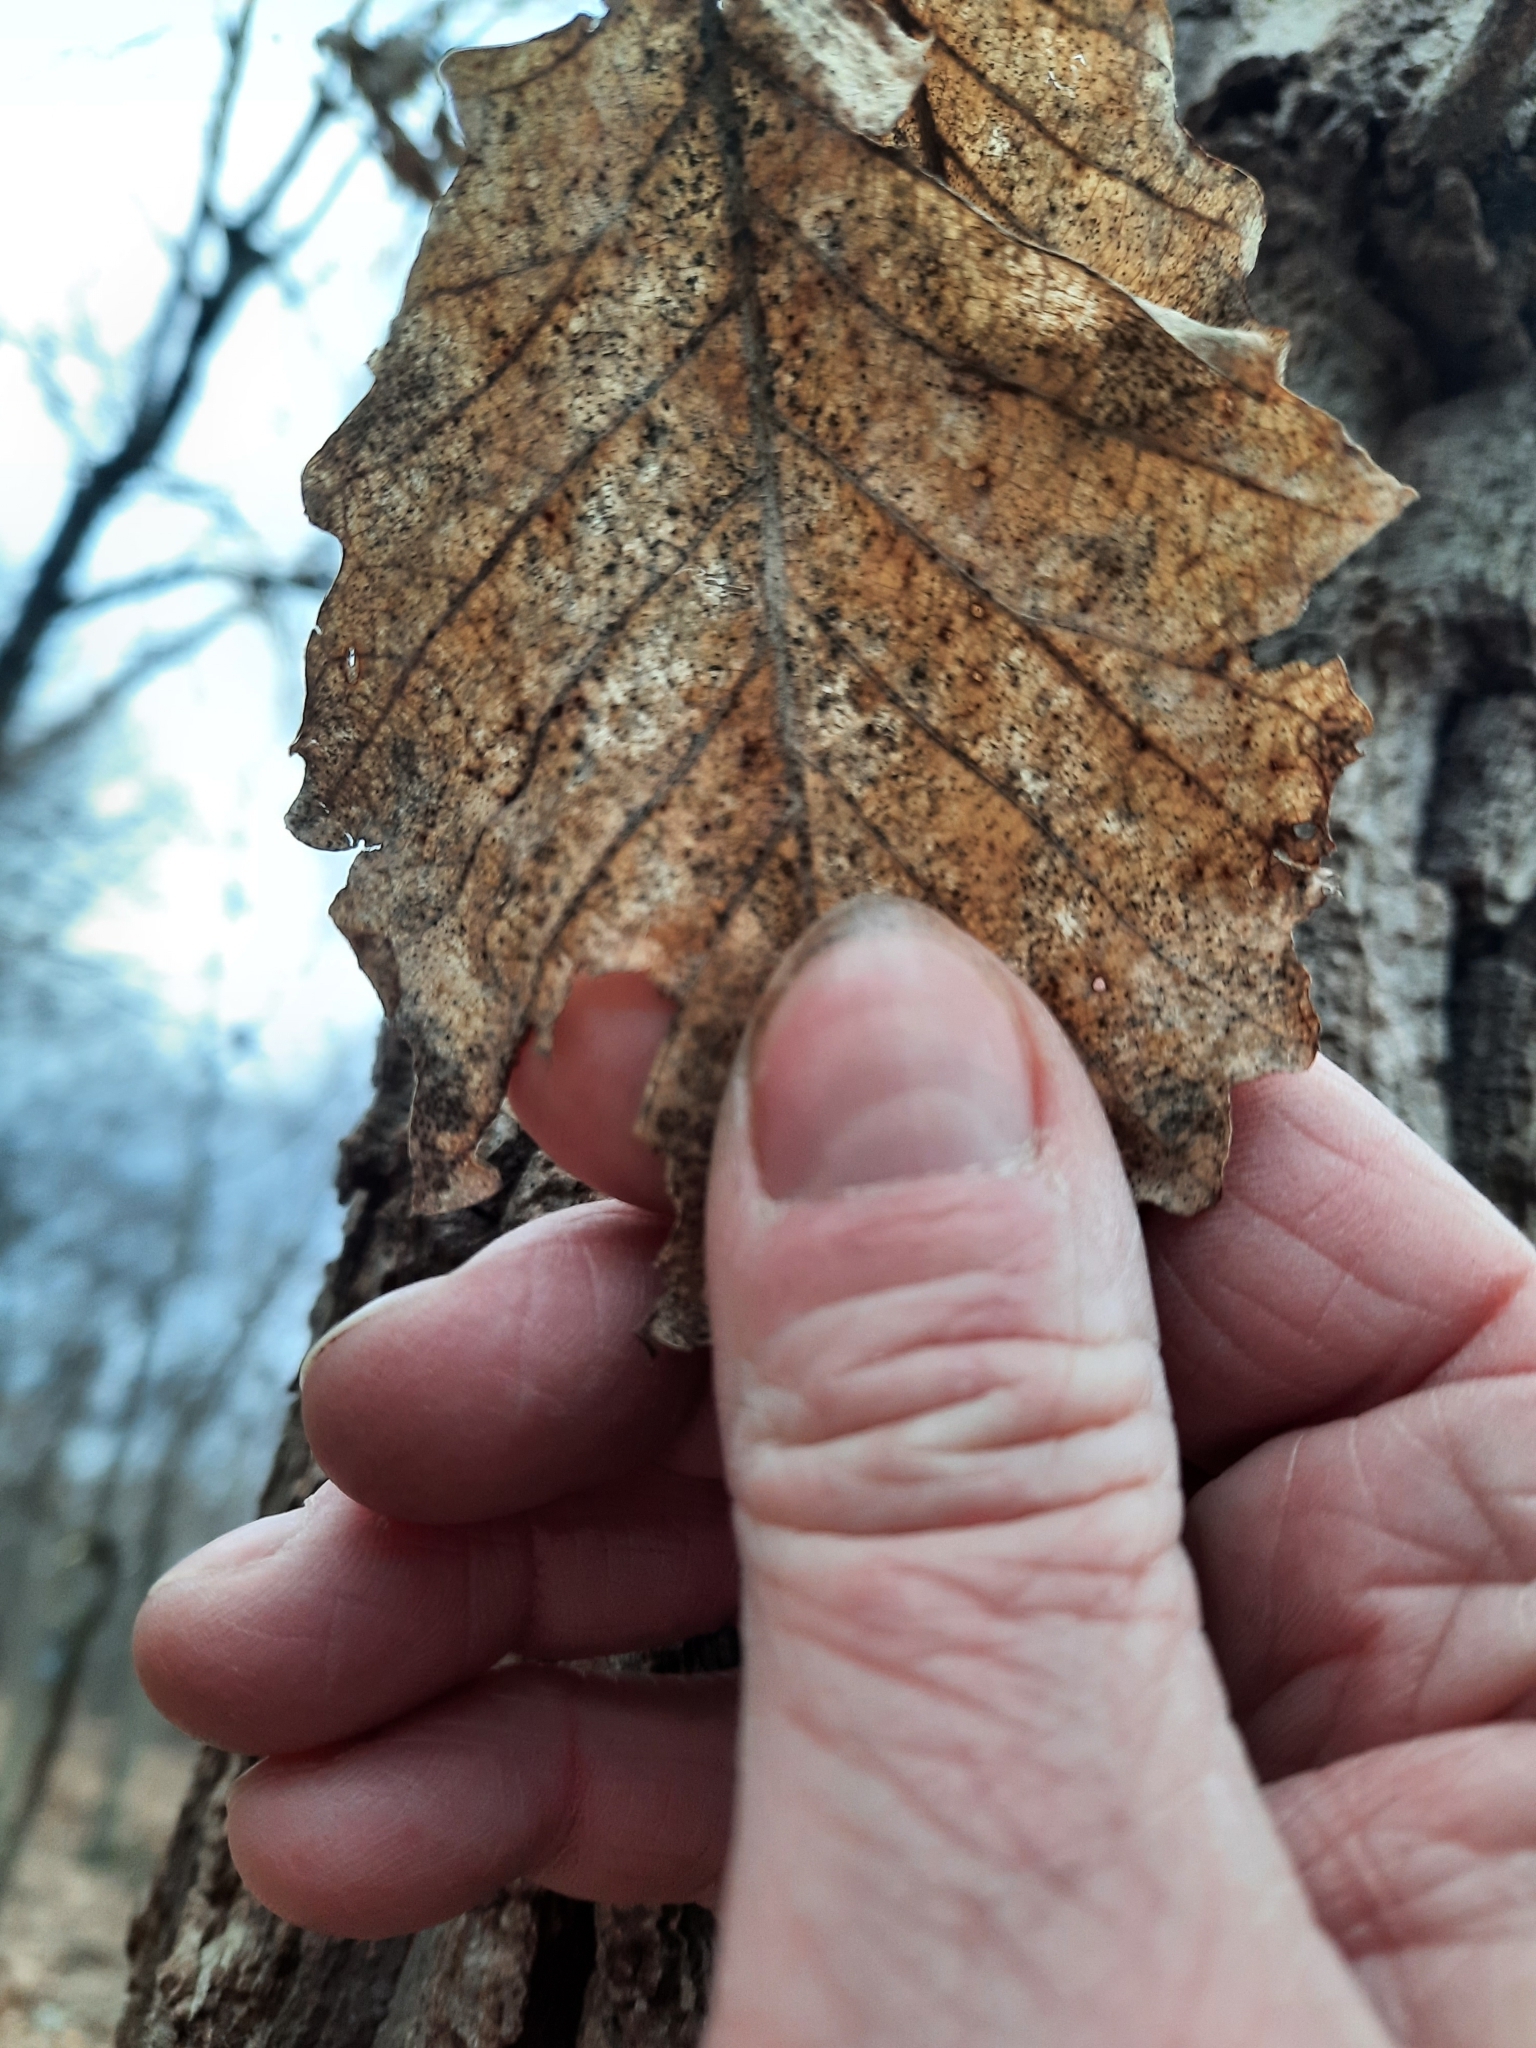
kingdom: Plantae
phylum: Tracheophyta
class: Magnoliopsida
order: Fagales
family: Fagaceae
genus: Quercus
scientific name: Quercus montana
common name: Chestnut oak
